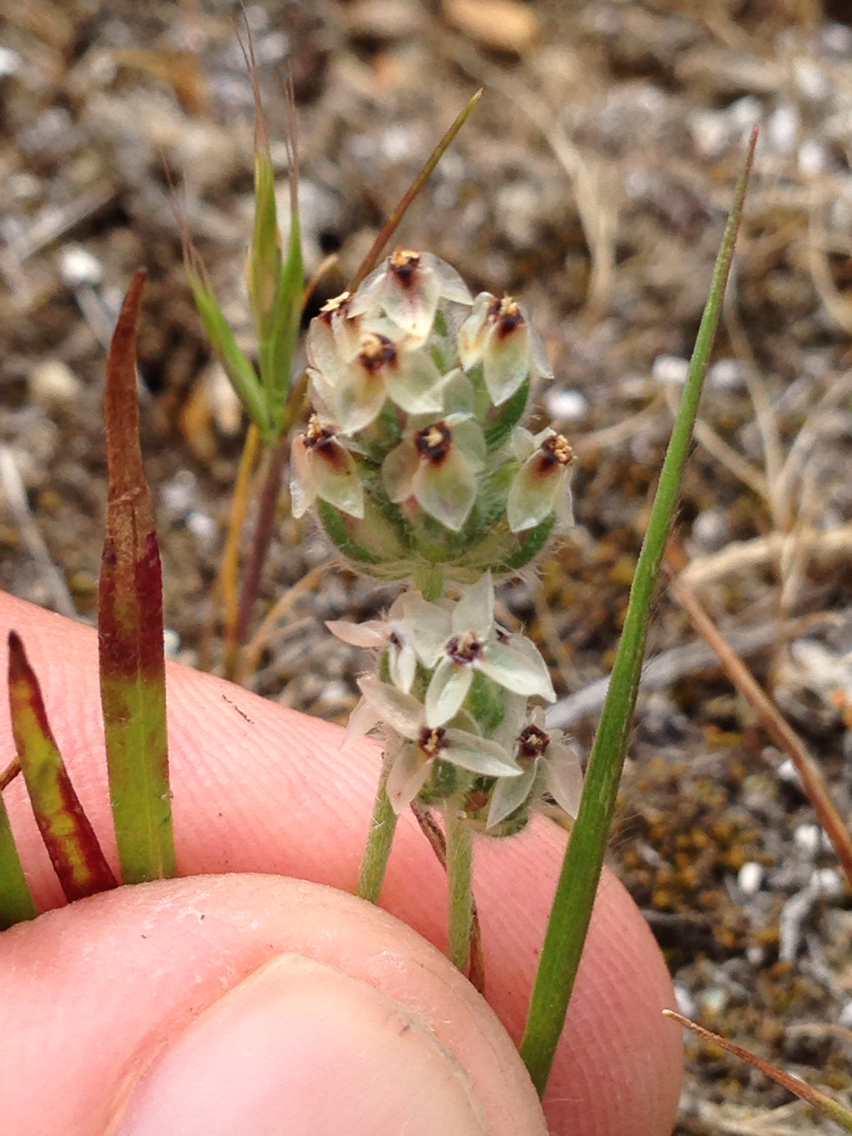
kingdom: Plantae
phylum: Tracheophyta
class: Magnoliopsida
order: Lamiales
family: Plantaginaceae
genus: Plantago
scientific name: Plantago erecta
